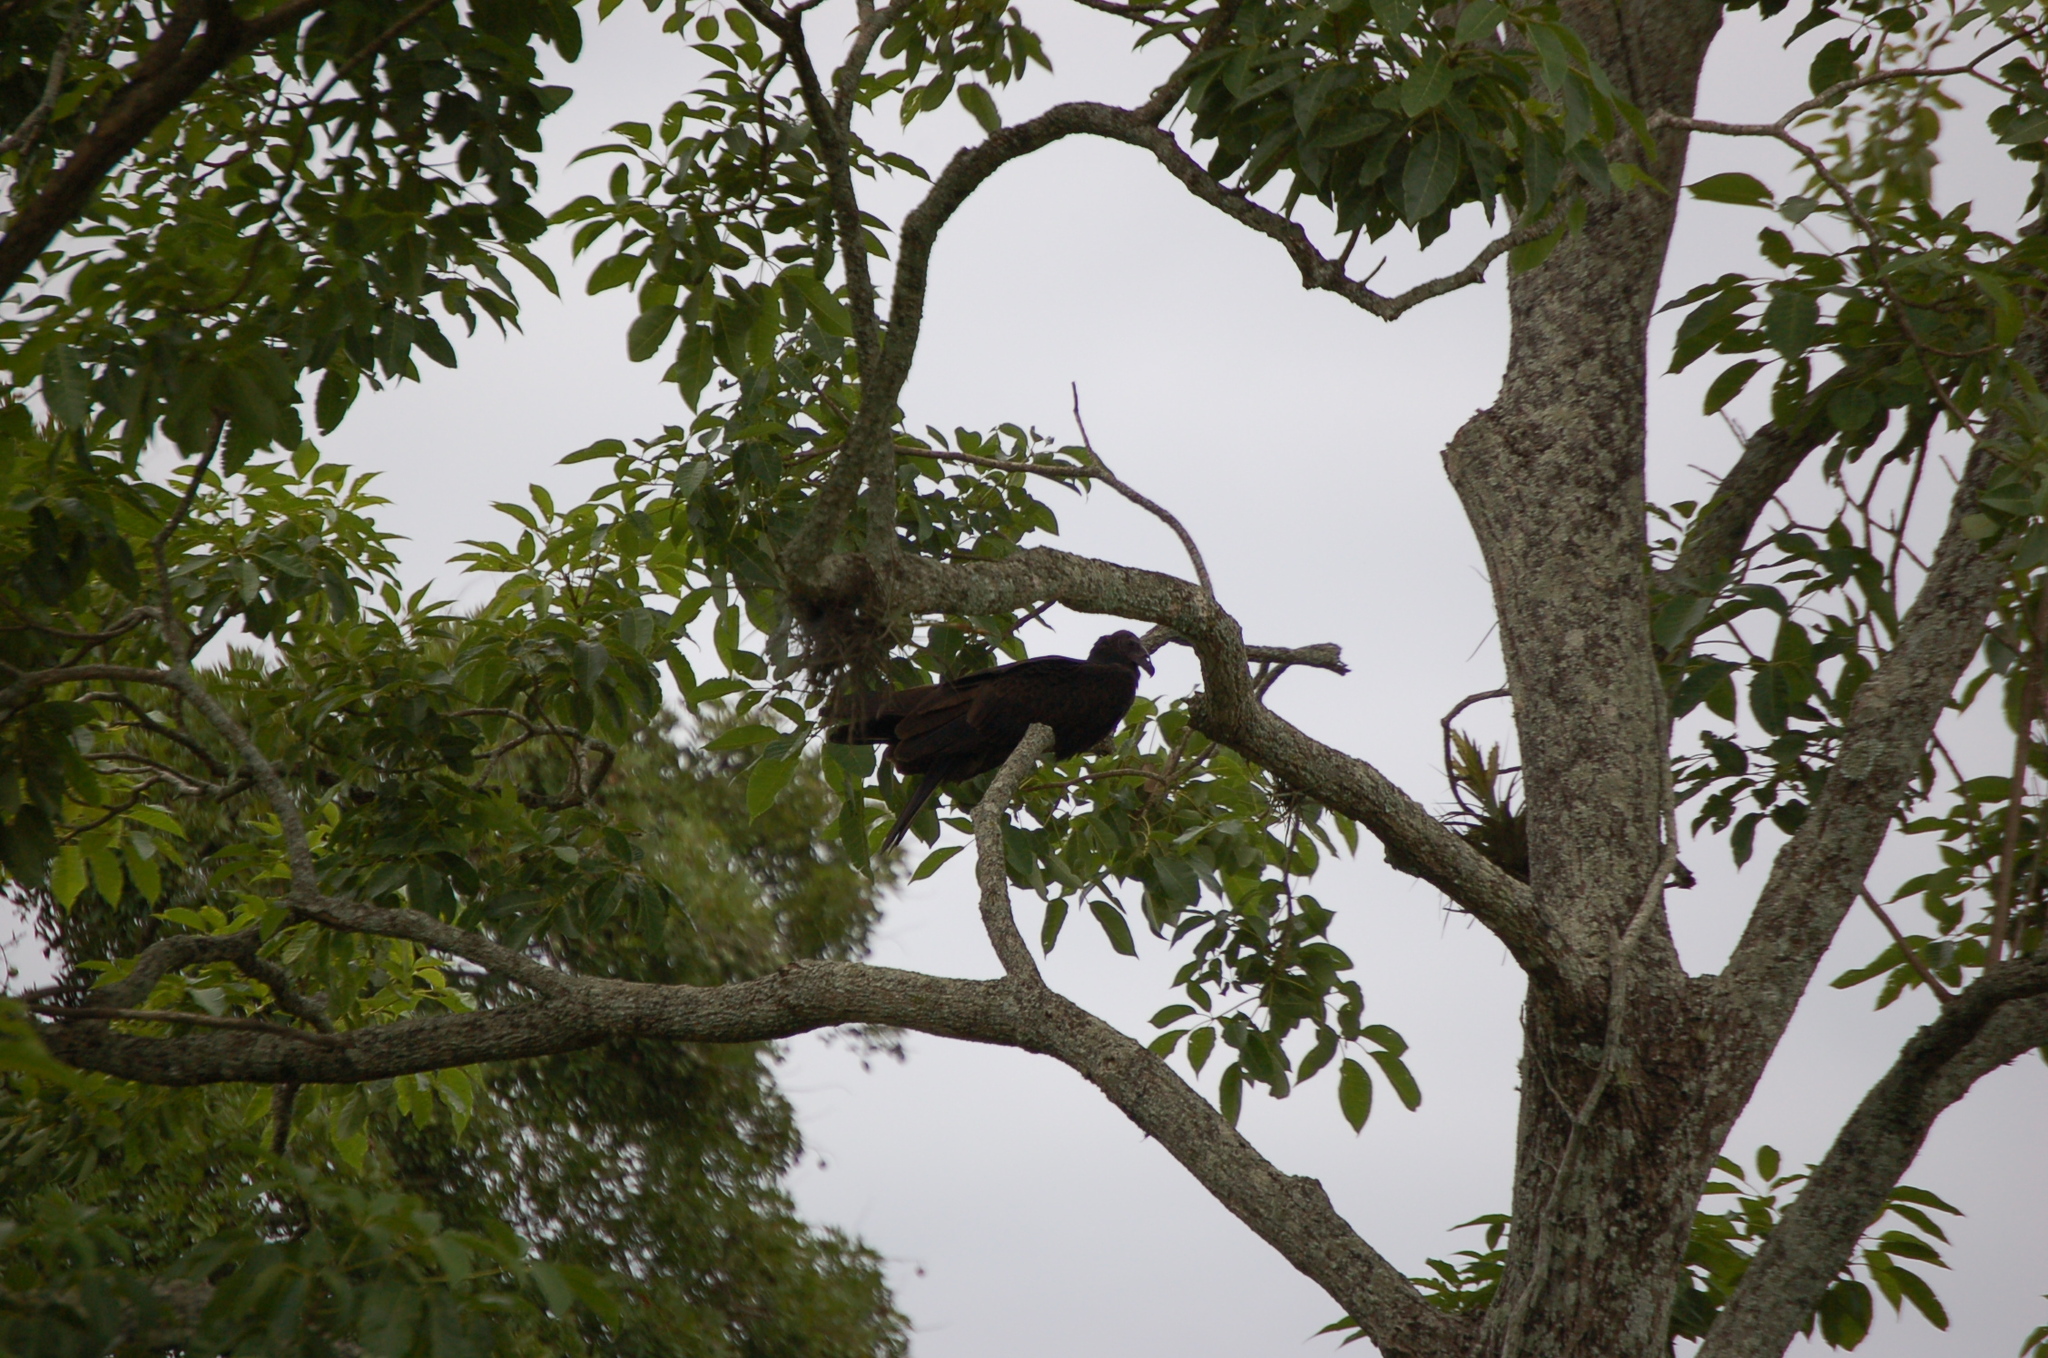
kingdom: Animalia
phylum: Chordata
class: Aves
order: Accipitriformes
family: Cathartidae
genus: Cathartes
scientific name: Cathartes aura
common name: Turkey vulture
